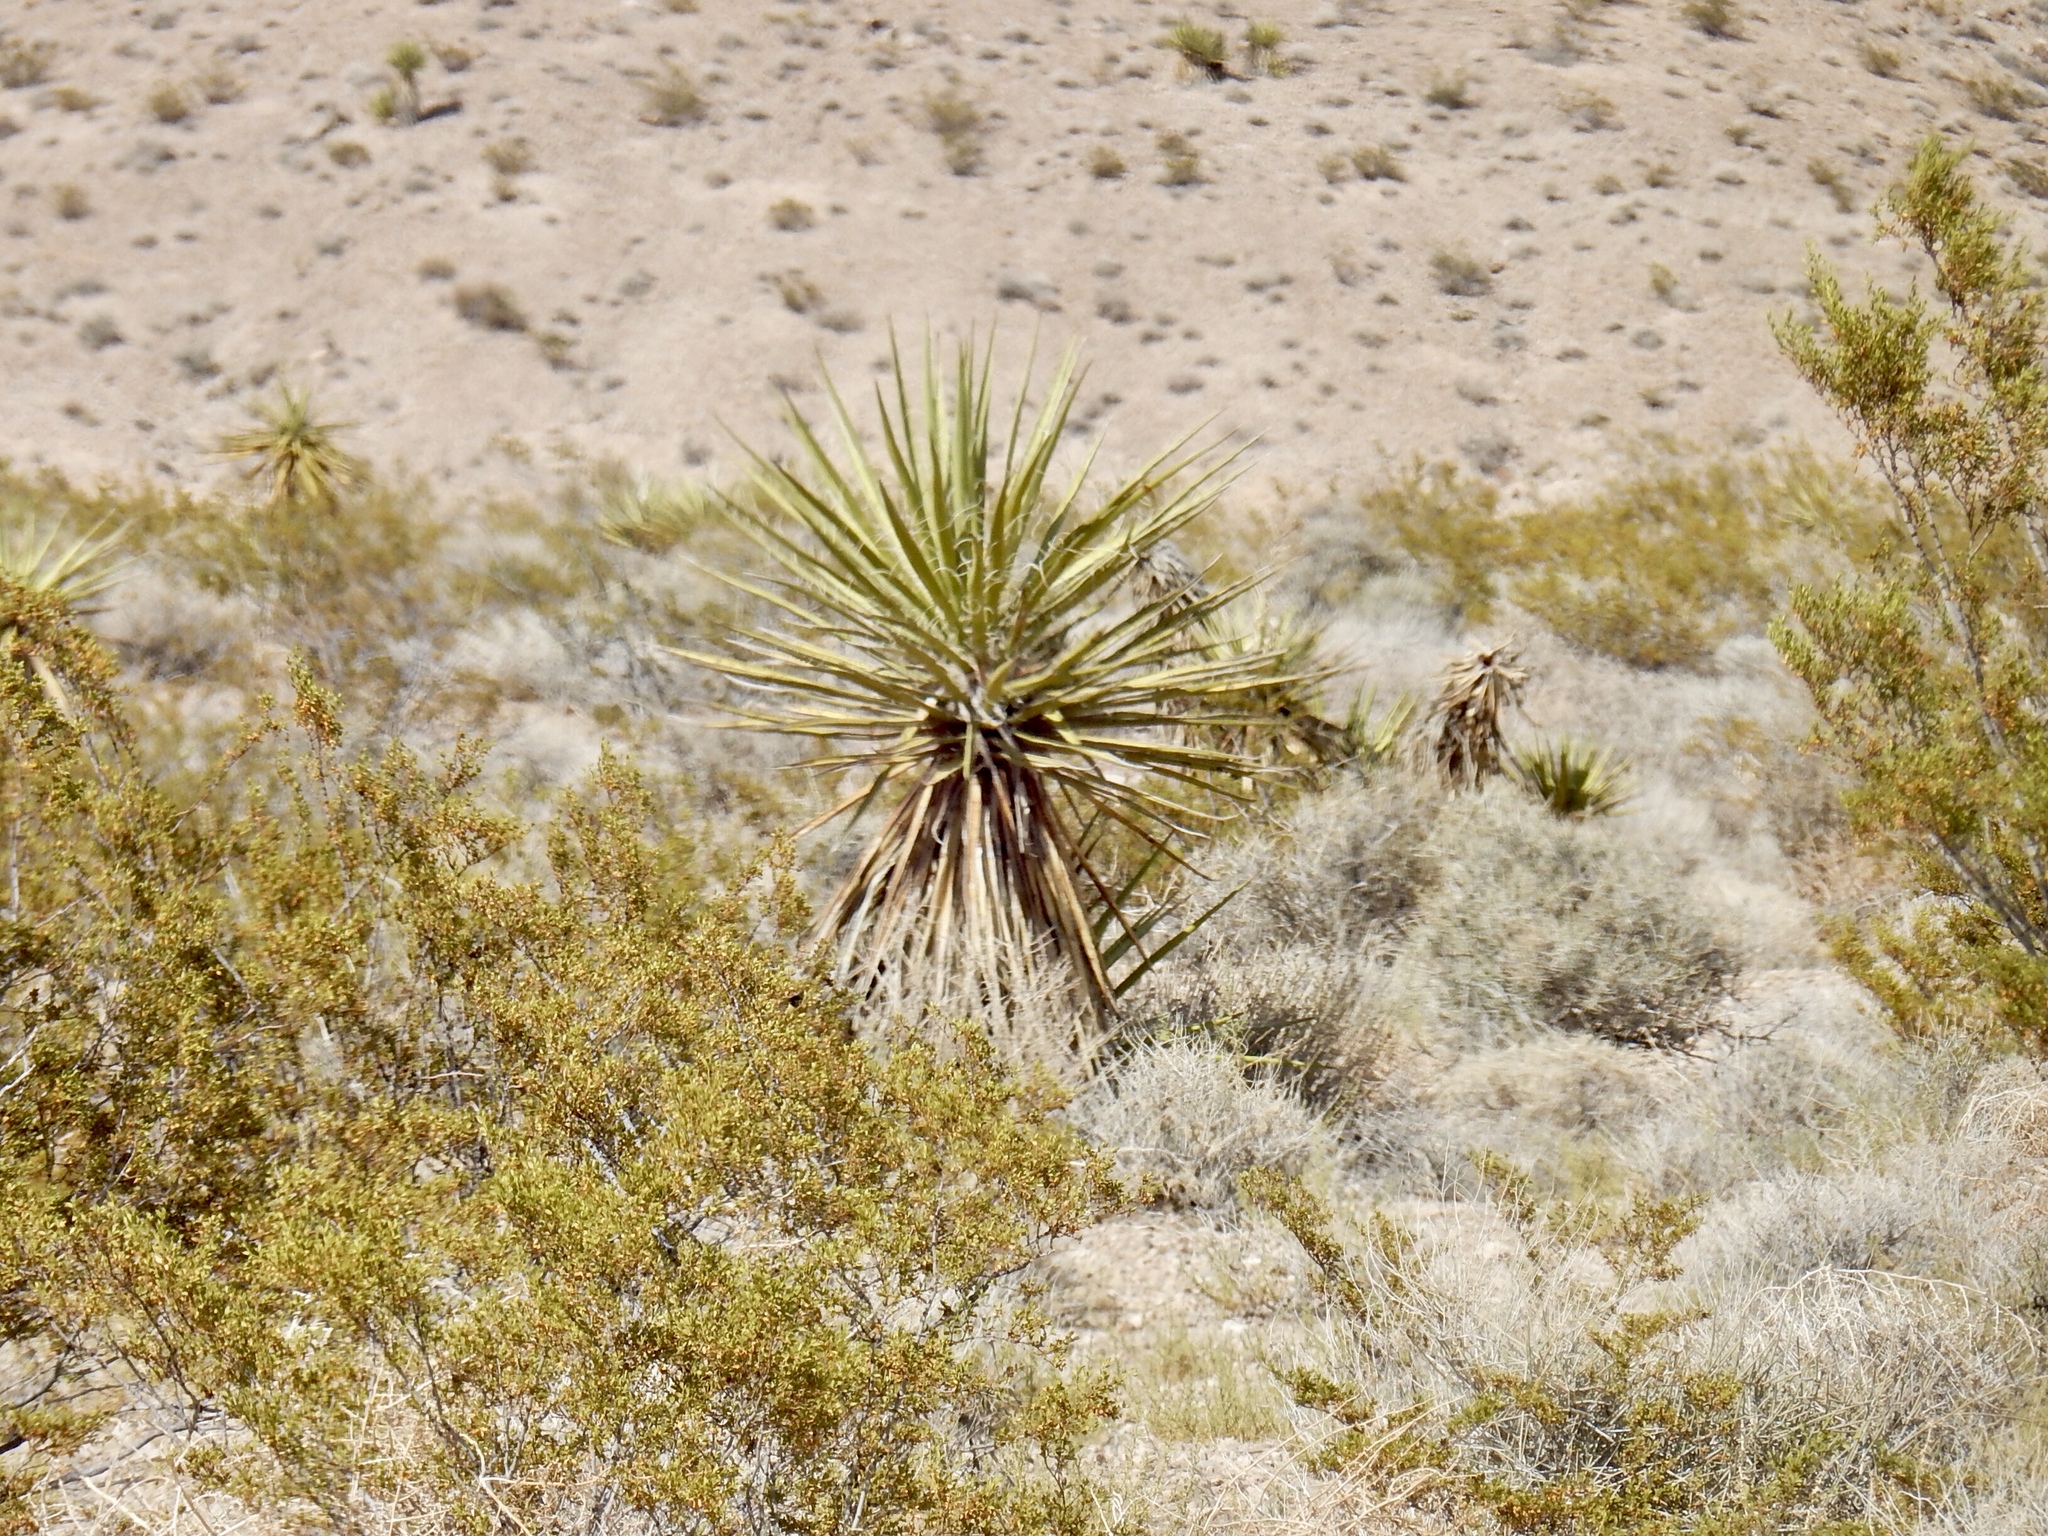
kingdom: Plantae
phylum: Tracheophyta
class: Liliopsida
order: Asparagales
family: Asparagaceae
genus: Yucca
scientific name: Yucca schidigera
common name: Mojave yucca
